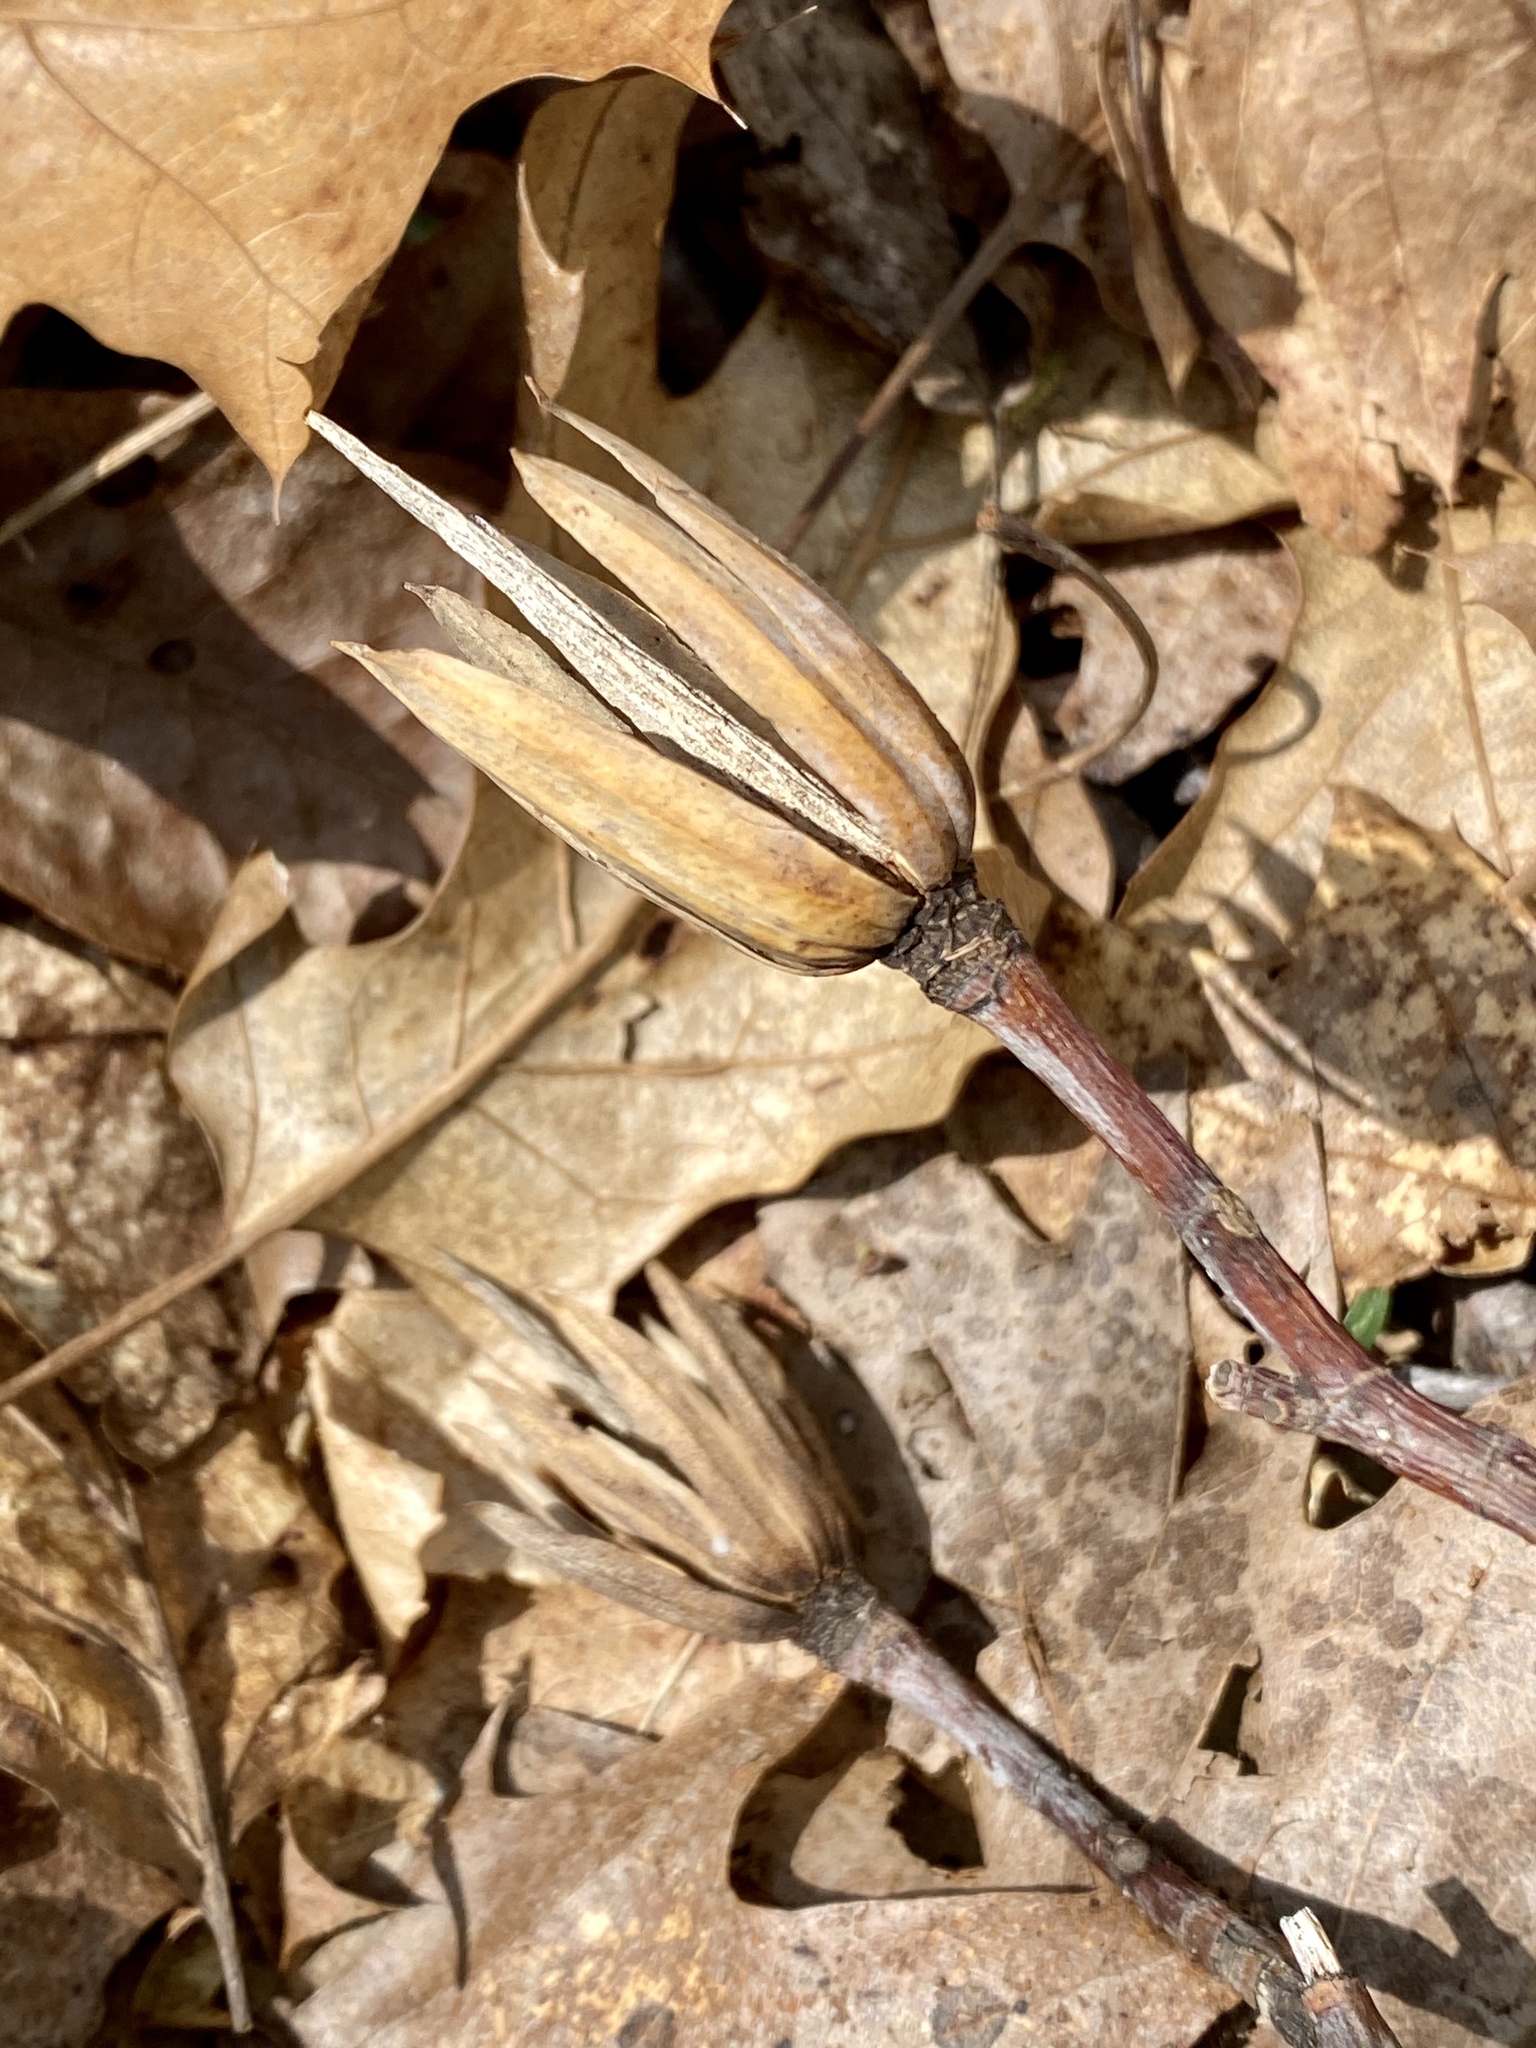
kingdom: Plantae
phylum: Tracheophyta
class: Magnoliopsida
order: Magnoliales
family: Magnoliaceae
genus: Liriodendron
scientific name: Liriodendron tulipifera
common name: Tulip tree
